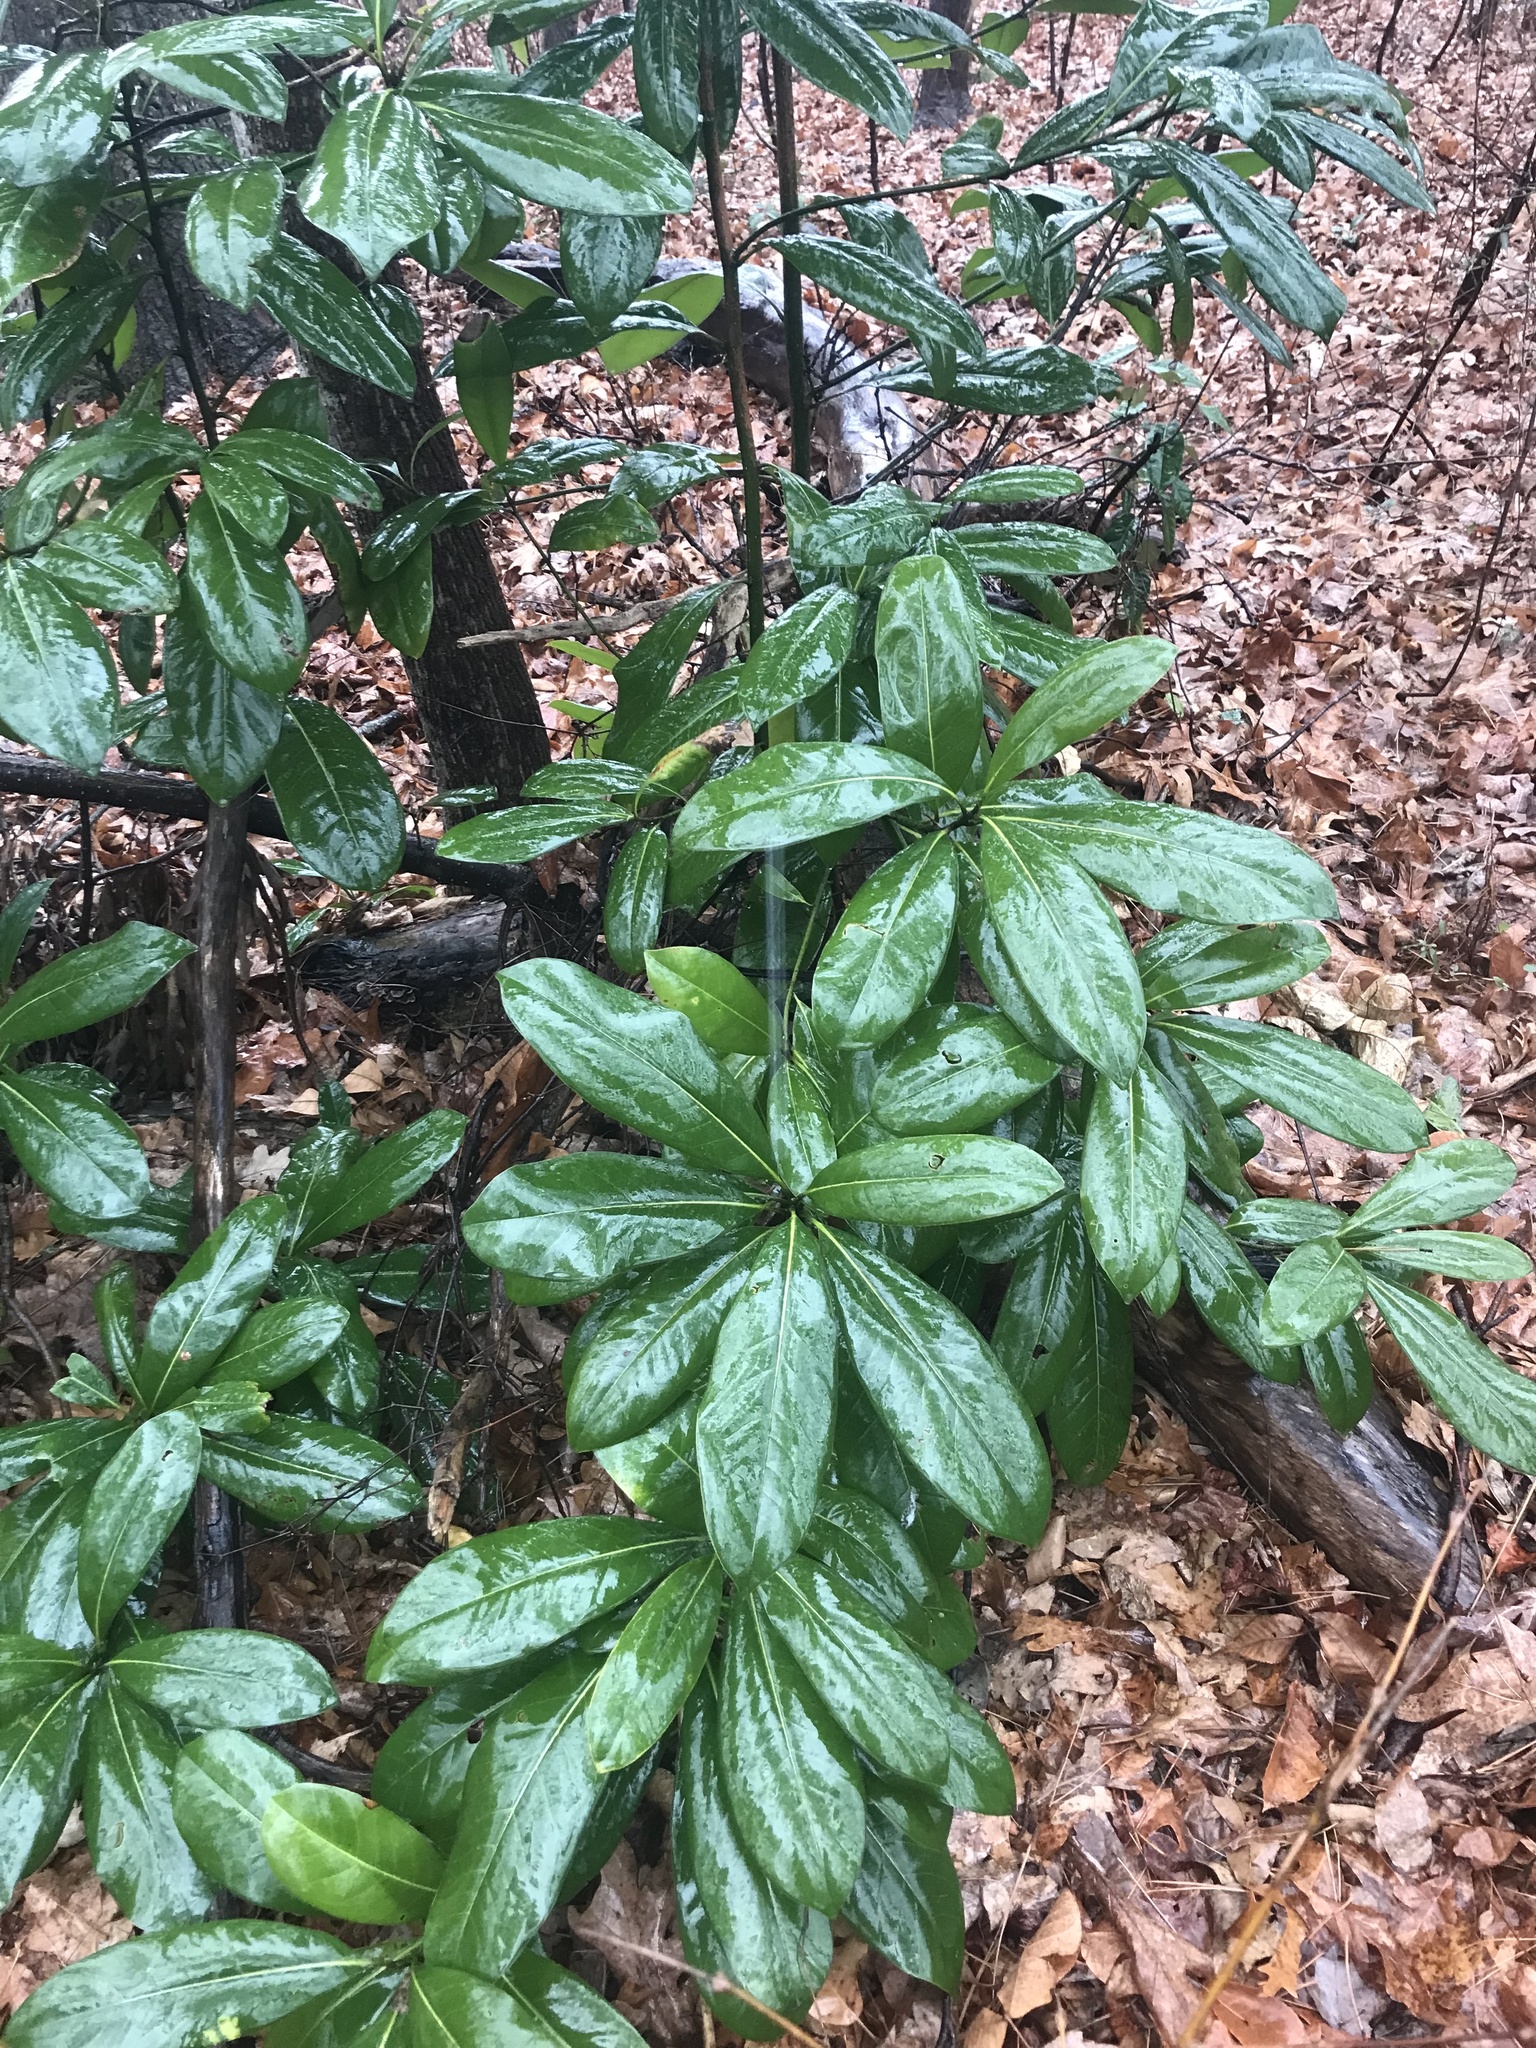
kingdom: Plantae
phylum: Tracheophyta
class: Magnoliopsida
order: Magnoliales
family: Magnoliaceae
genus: Magnolia
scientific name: Magnolia grandiflora
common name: Southern magnolia
